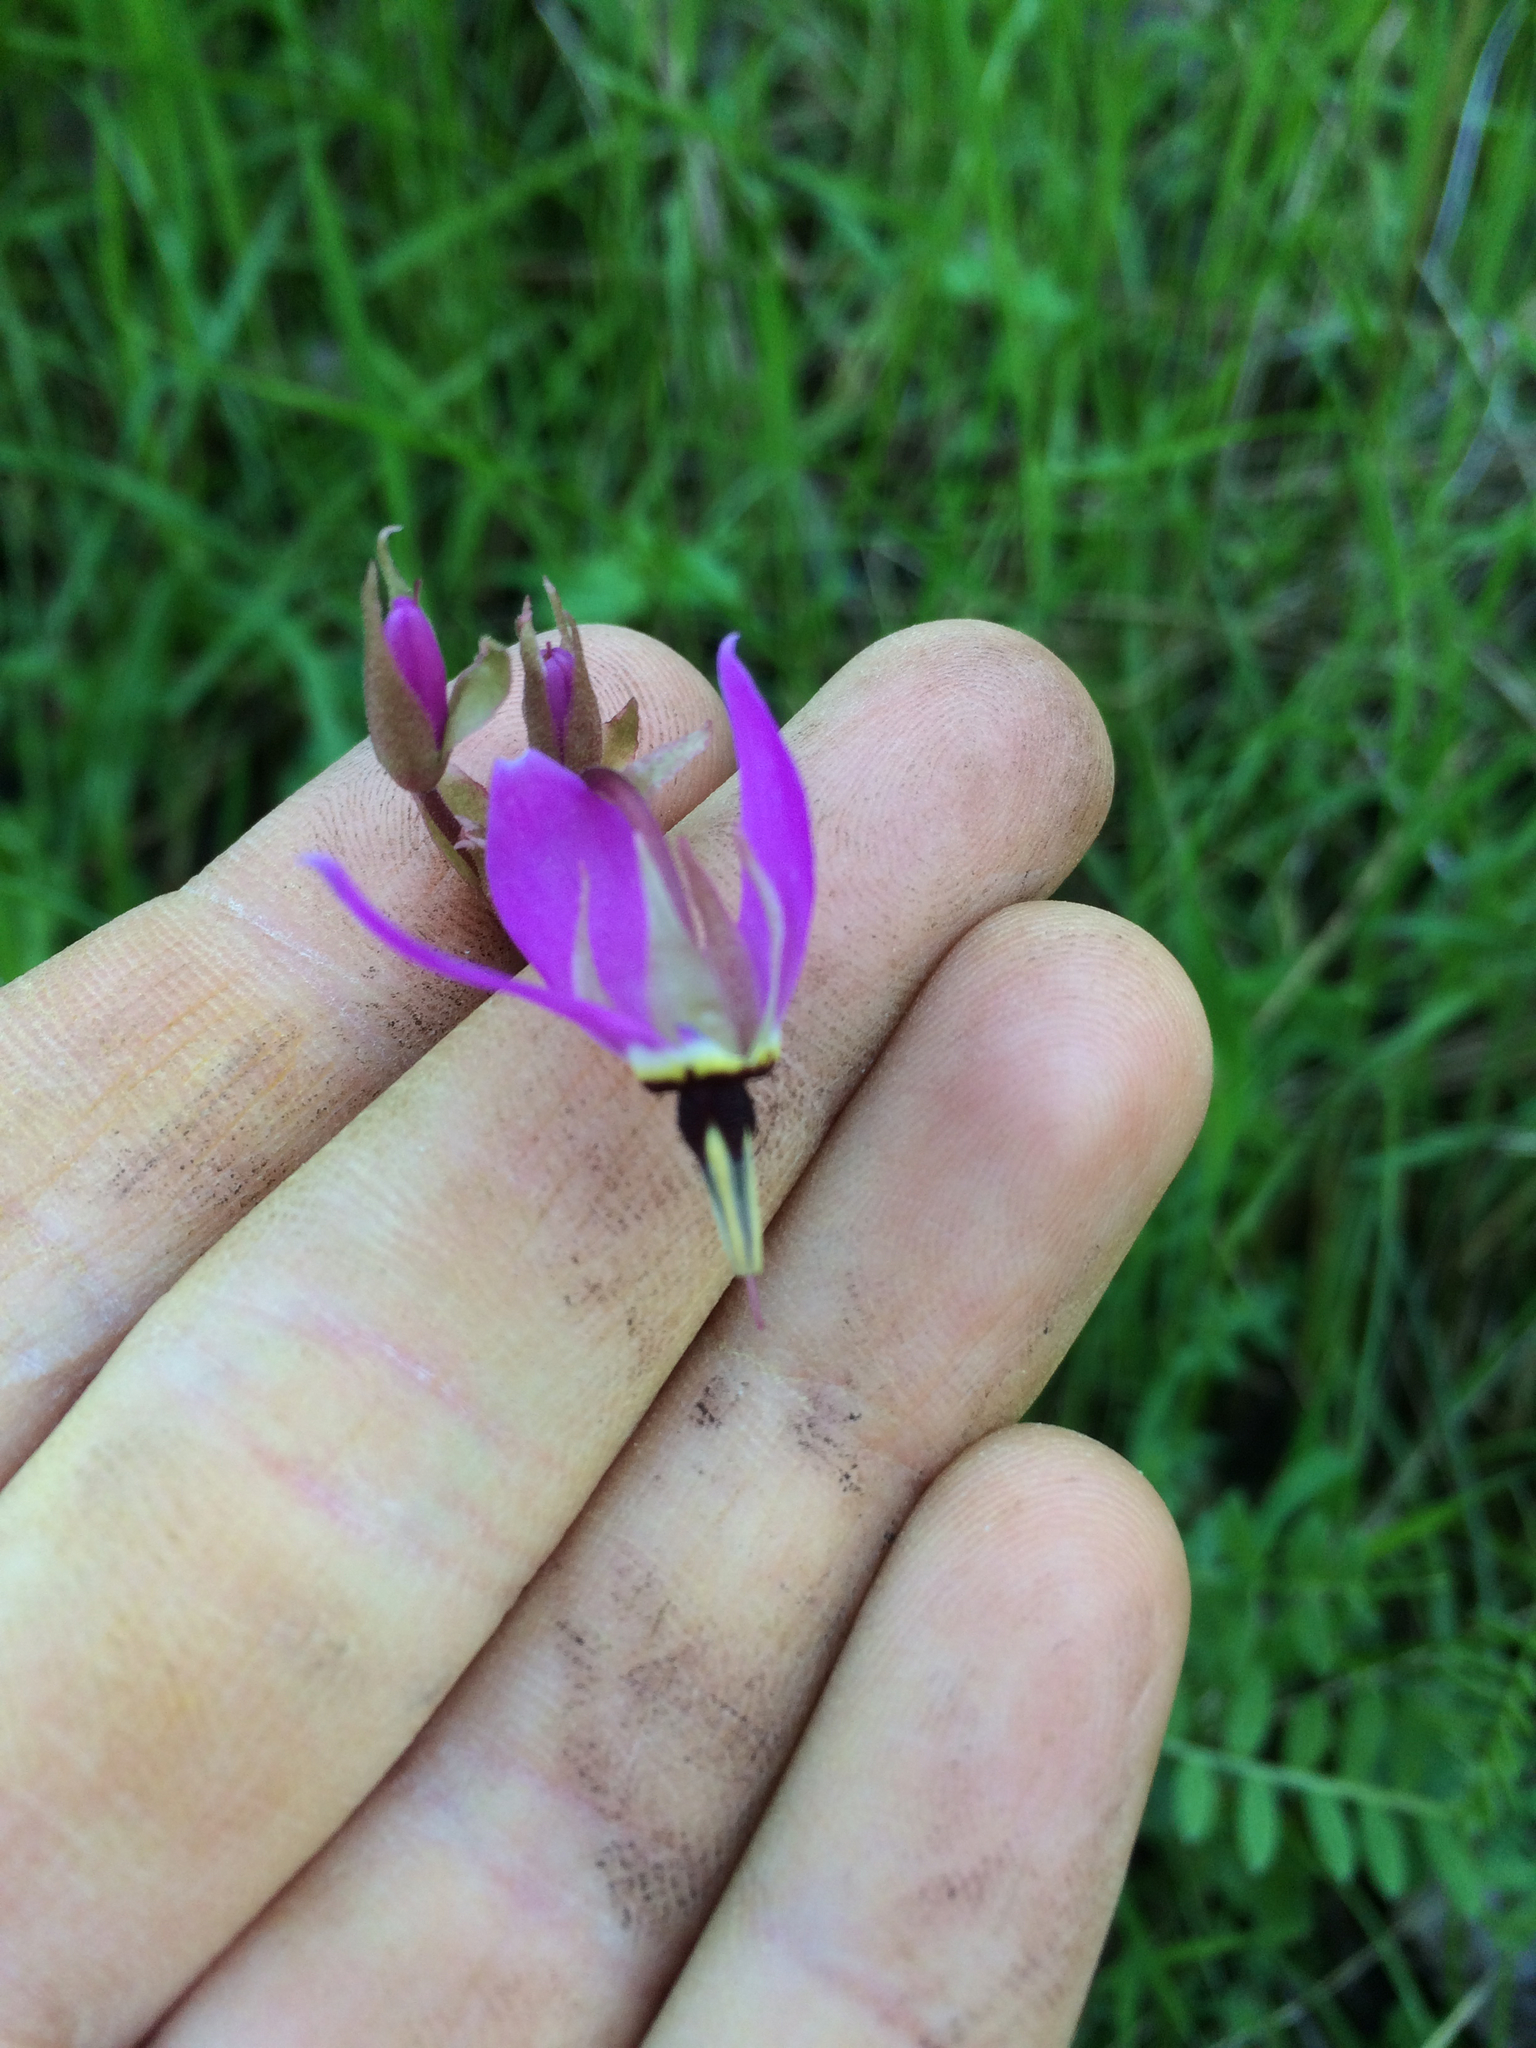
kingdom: Plantae
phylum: Tracheophyta
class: Magnoliopsida
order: Ericales
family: Primulaceae
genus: Dodecatheon
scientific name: Dodecatheon hendersonii
